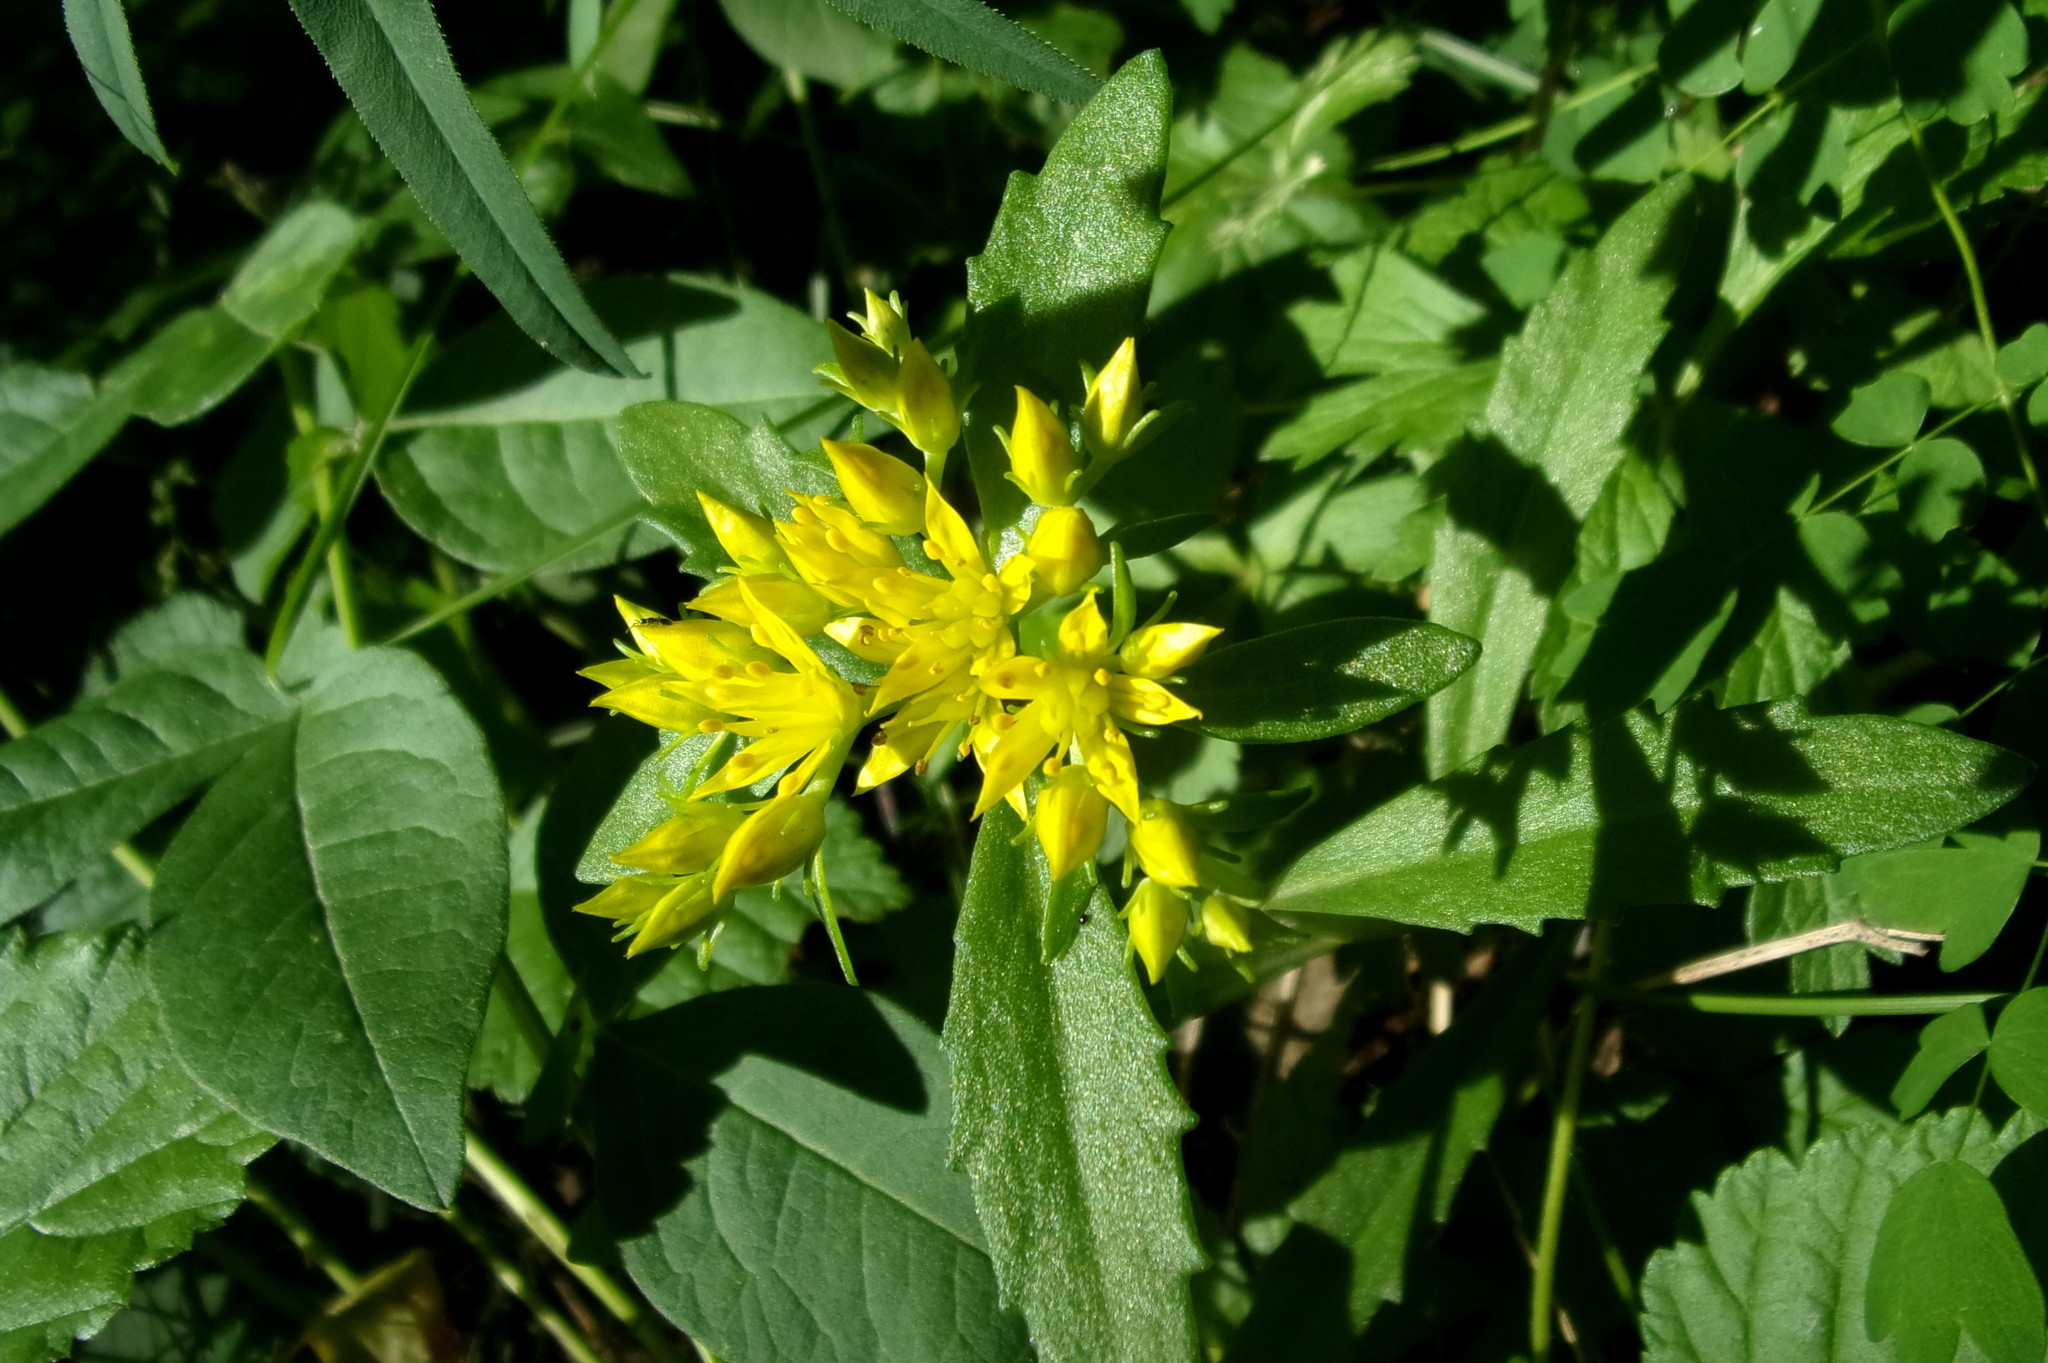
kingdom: Plantae
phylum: Tracheophyta
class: Magnoliopsida
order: Saxifragales
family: Crassulaceae
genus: Phedimus
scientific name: Phedimus aizoon
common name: Orpin aizoon
